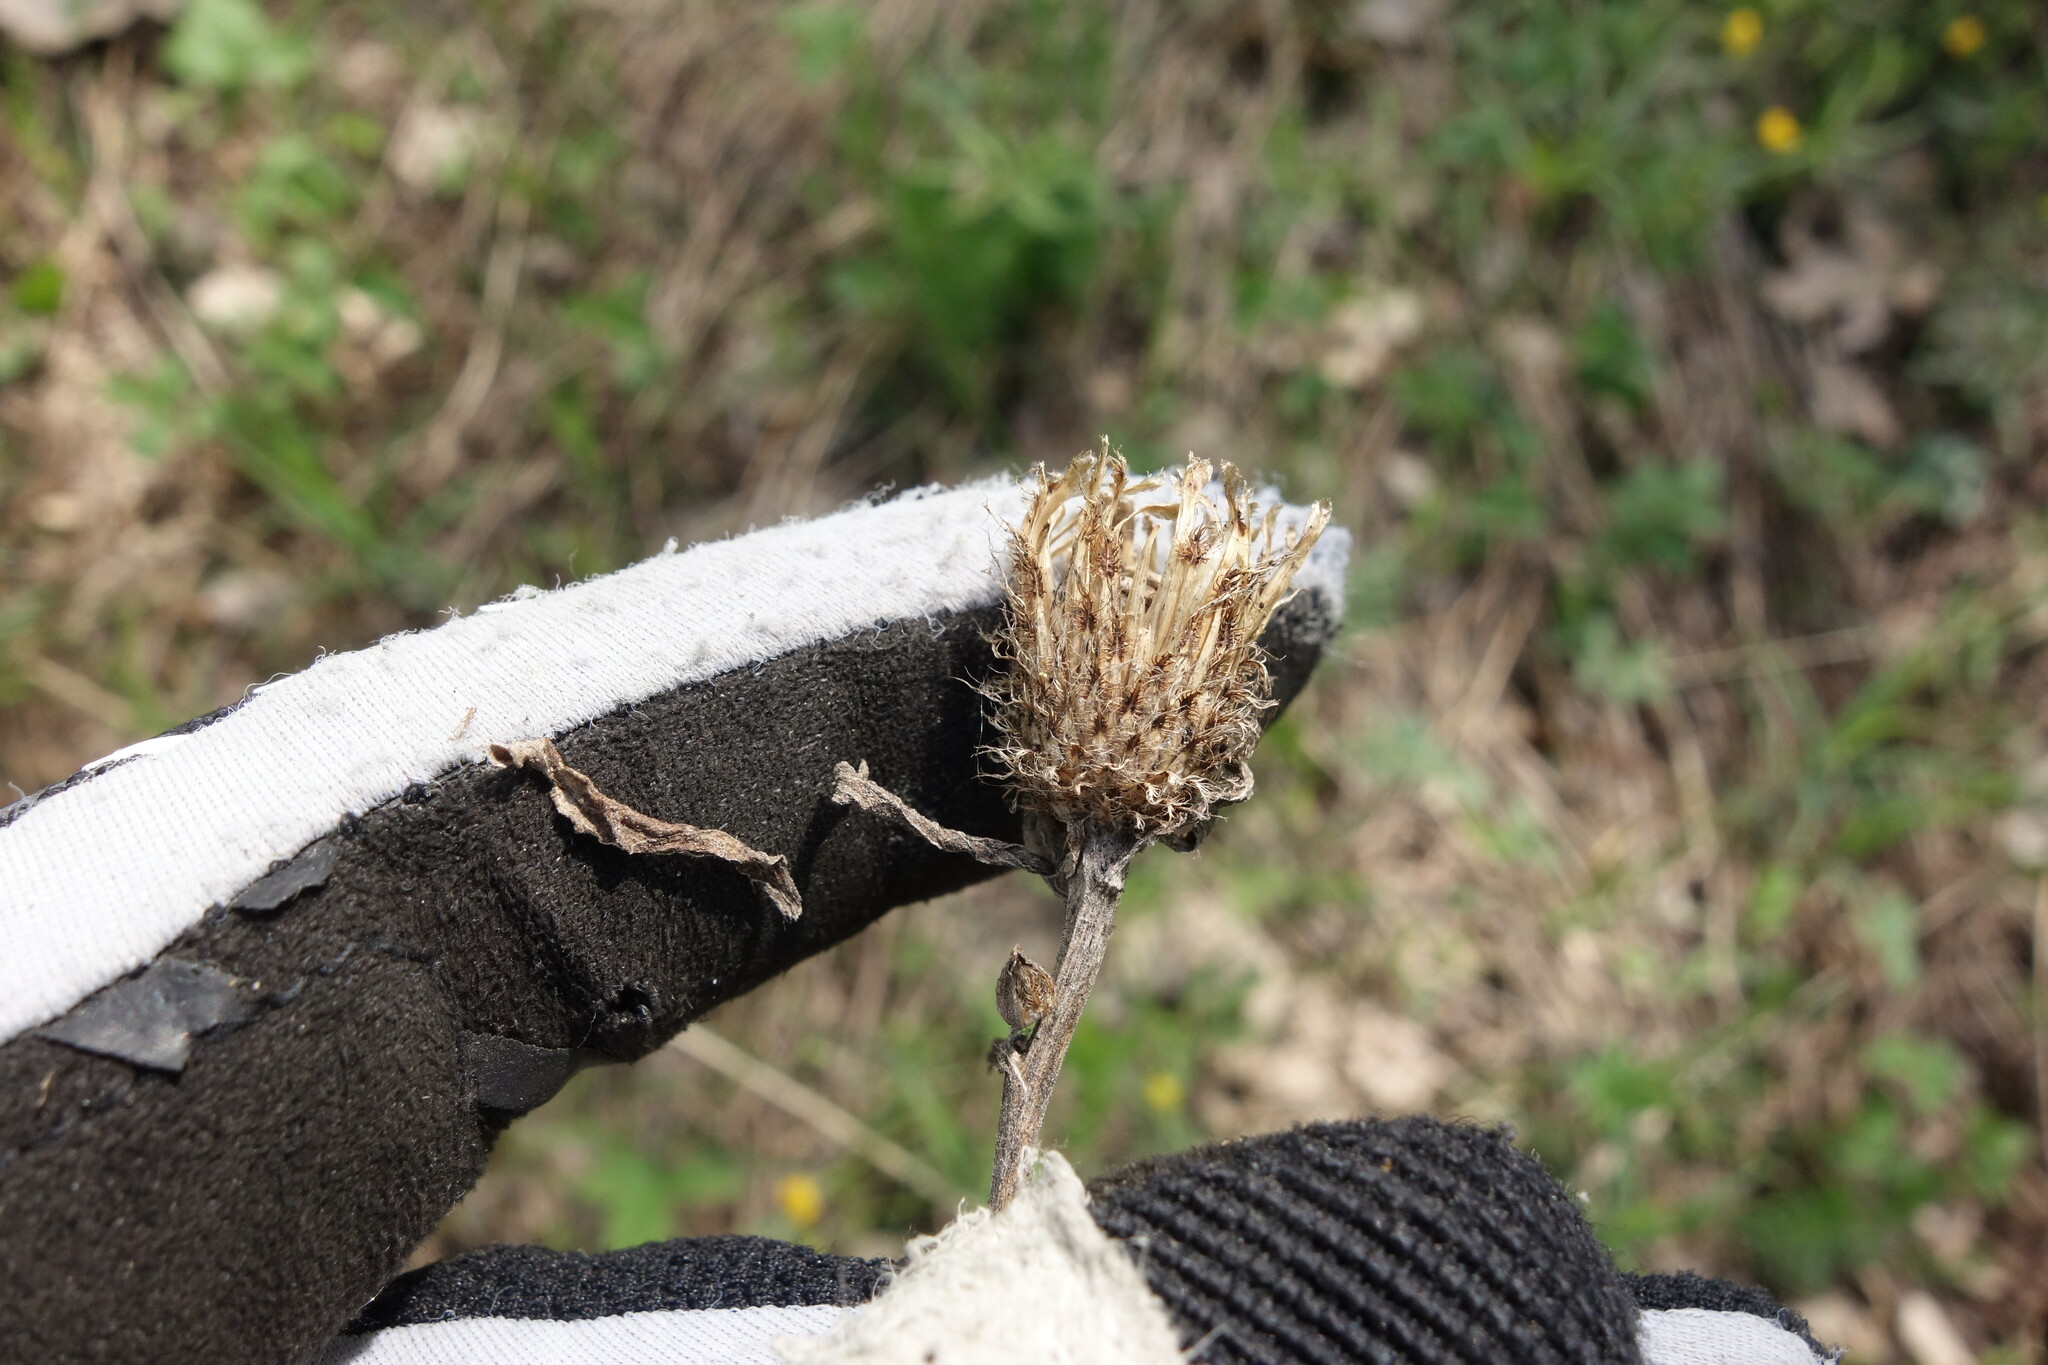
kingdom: Plantae
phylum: Tracheophyta
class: Magnoliopsida
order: Asterales
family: Asteraceae
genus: Centaurea
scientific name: Centaurea pseudophrygia
